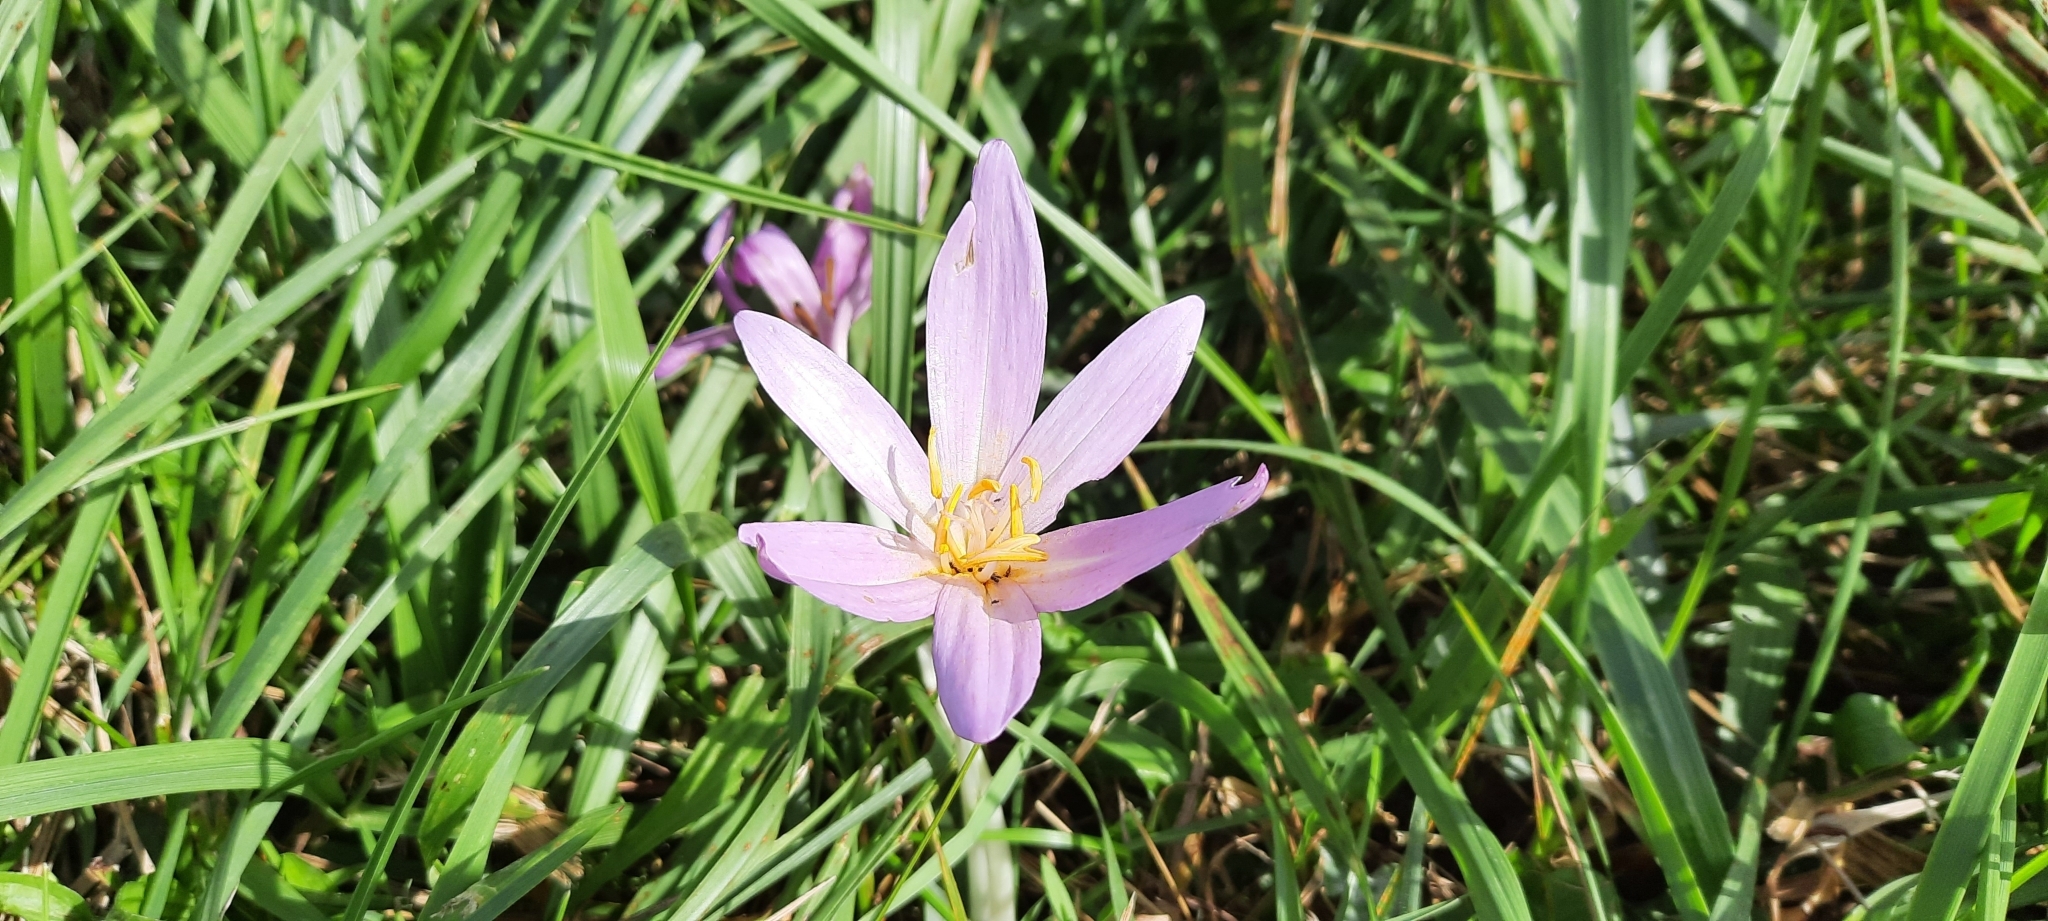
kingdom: Plantae
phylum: Tracheophyta
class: Liliopsida
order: Liliales
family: Colchicaceae
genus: Colchicum
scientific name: Colchicum autumnale
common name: Autumn crocus
